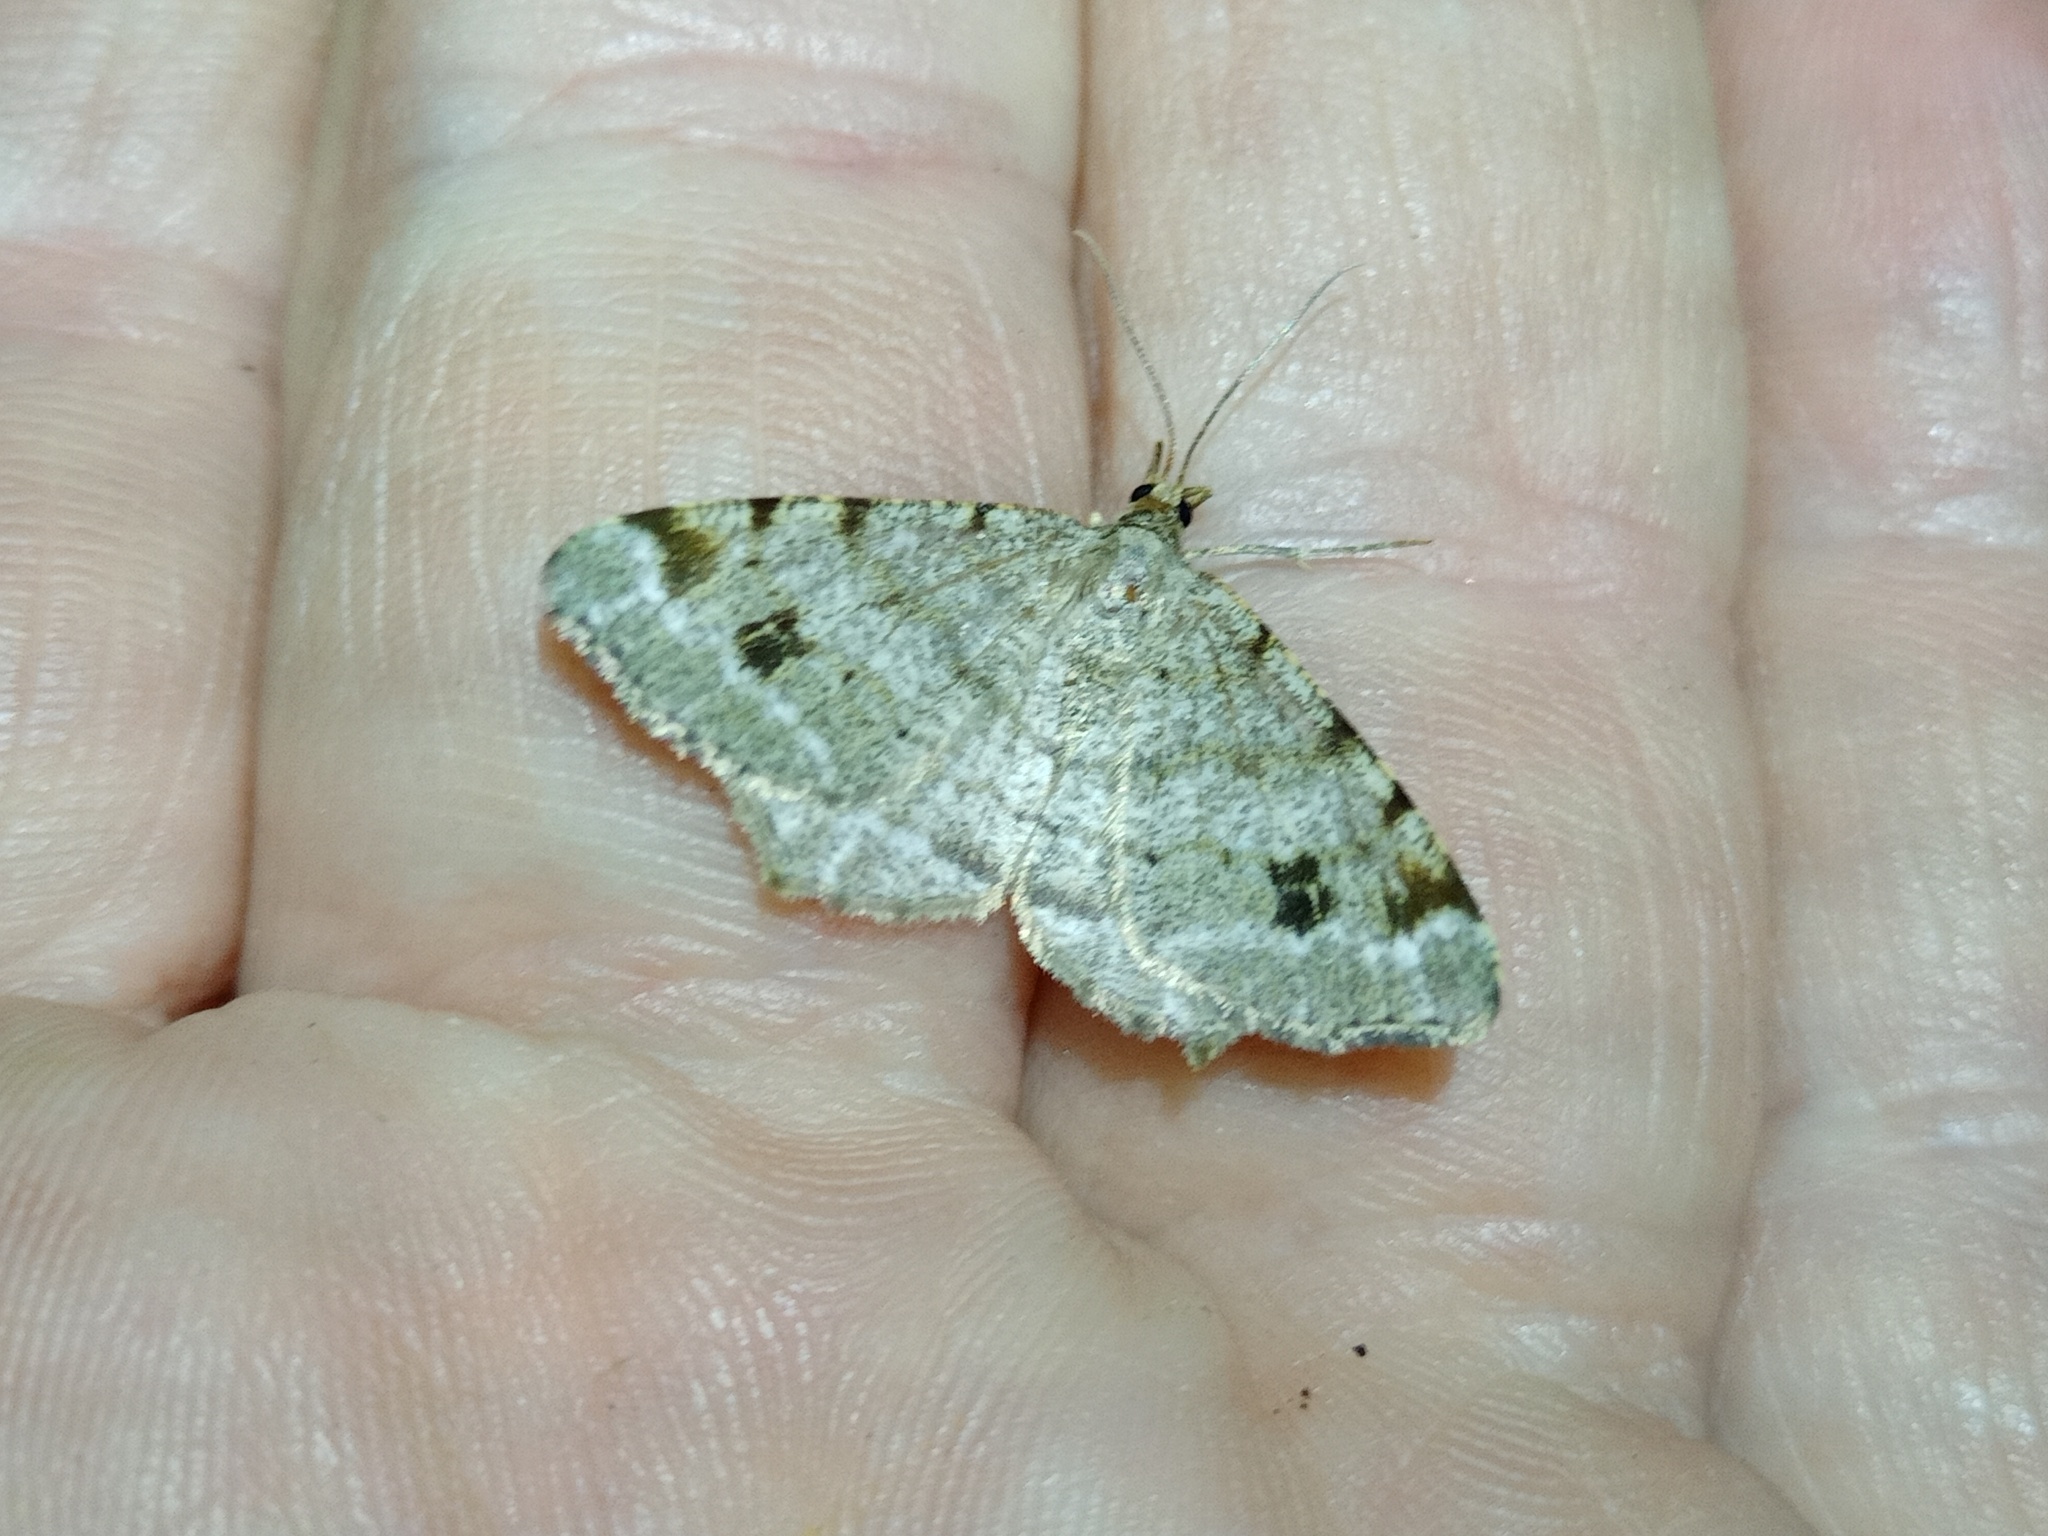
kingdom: Animalia
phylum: Arthropoda
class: Insecta
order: Lepidoptera
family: Geometridae
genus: Macaria
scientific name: Macaria signaria
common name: Dusky peacock
